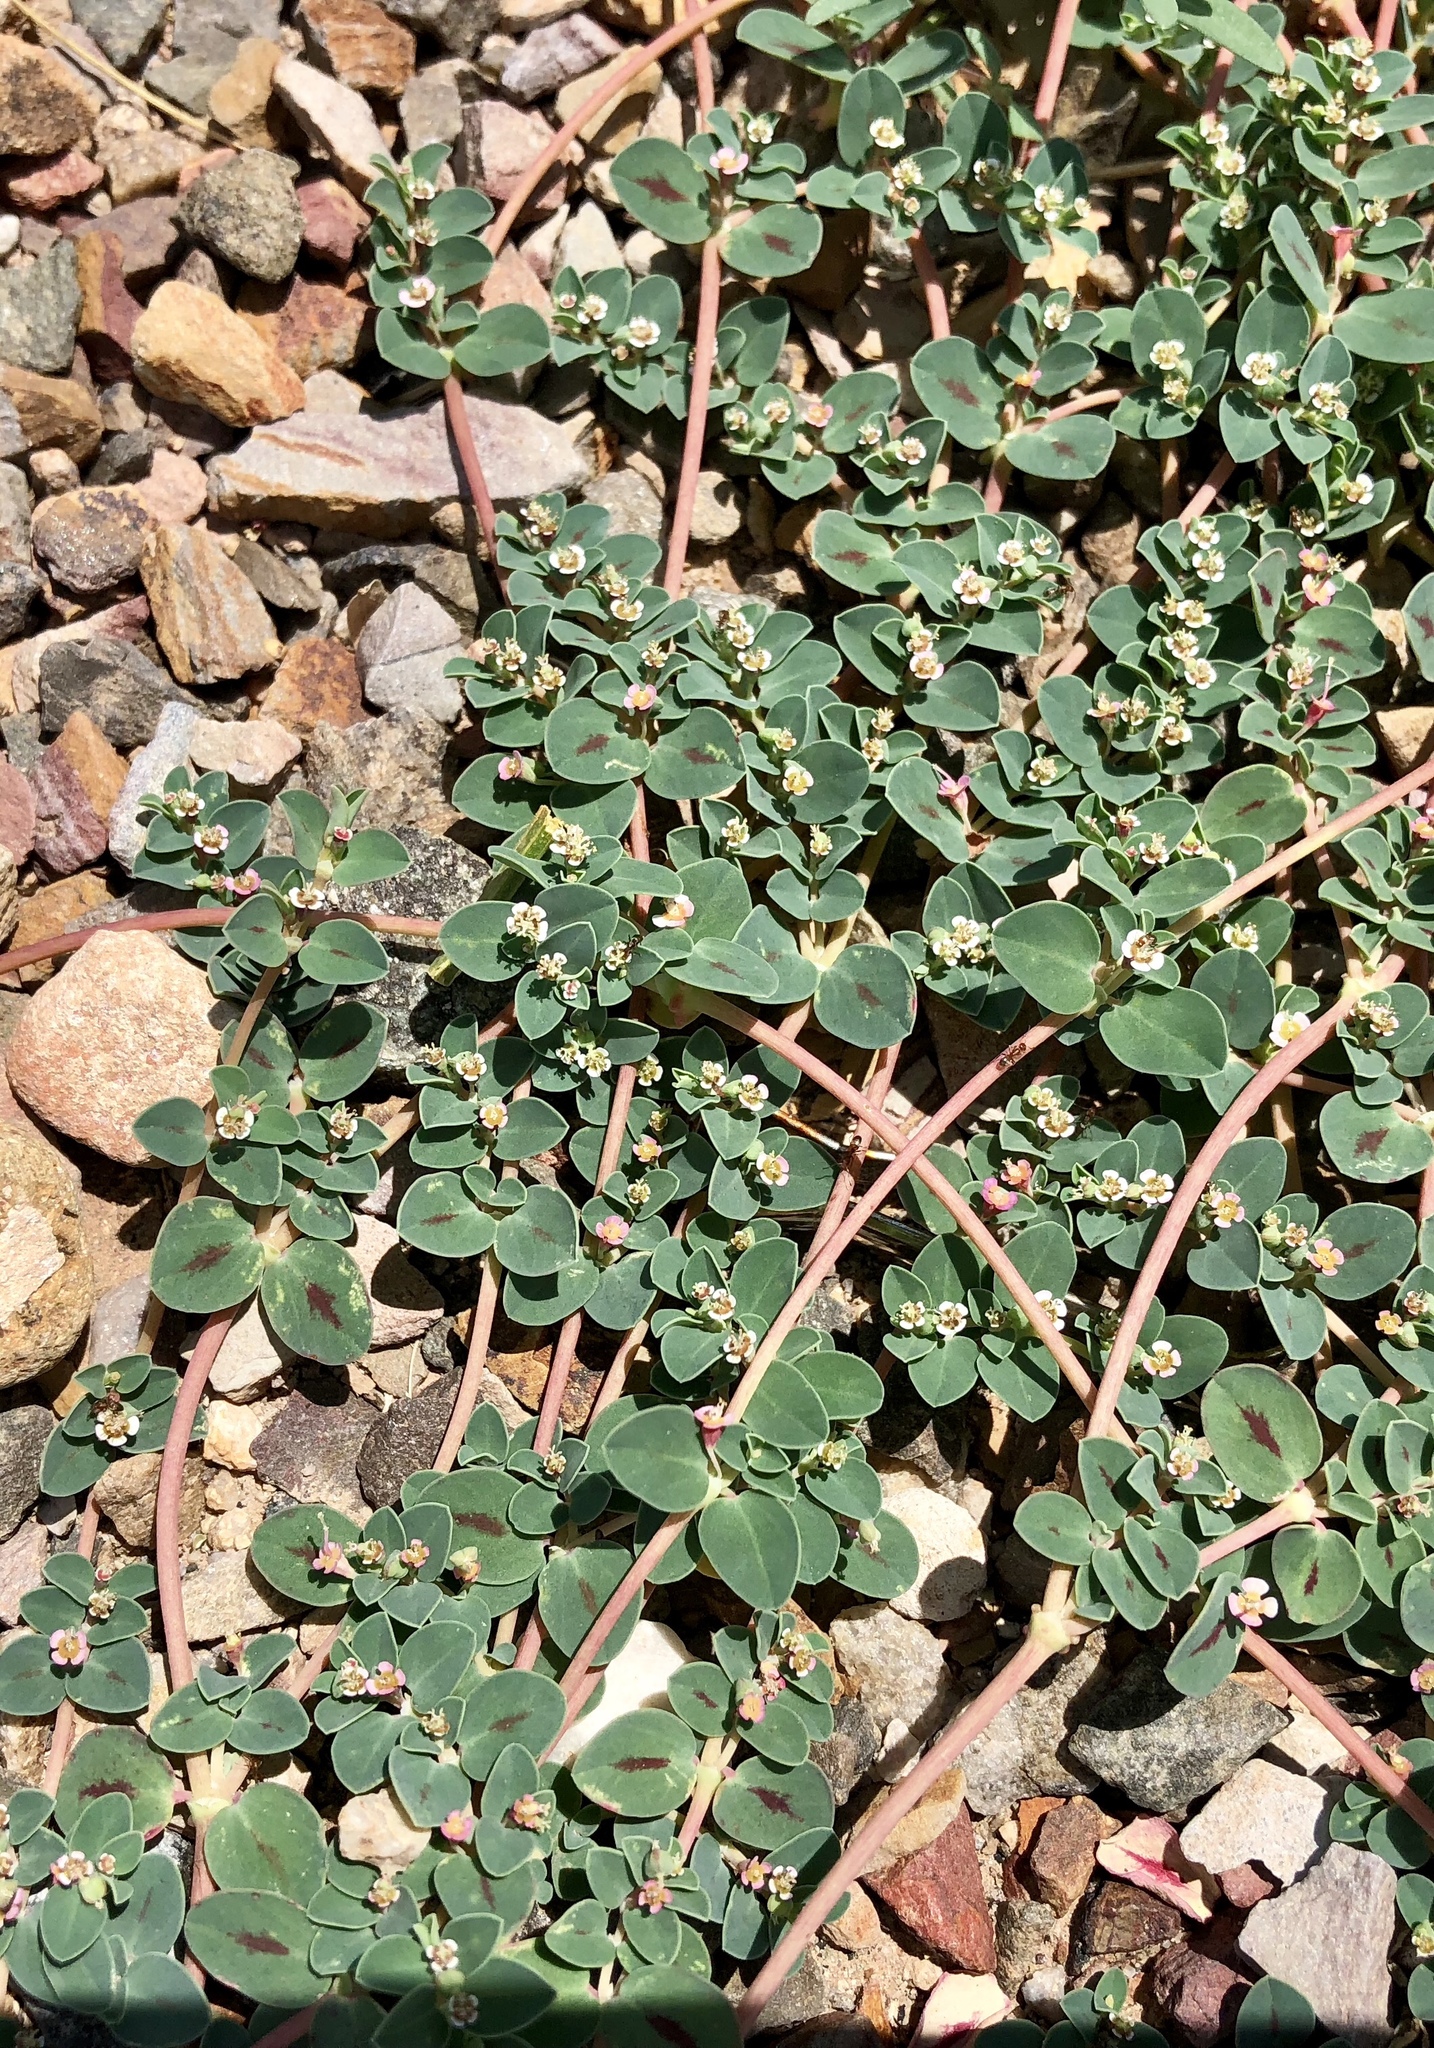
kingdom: Plantae
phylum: Tracheophyta
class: Magnoliopsida
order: Malpighiales
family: Euphorbiaceae
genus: Euphorbia
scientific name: Euphorbia albomarginata
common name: Whitemargin sandmat
